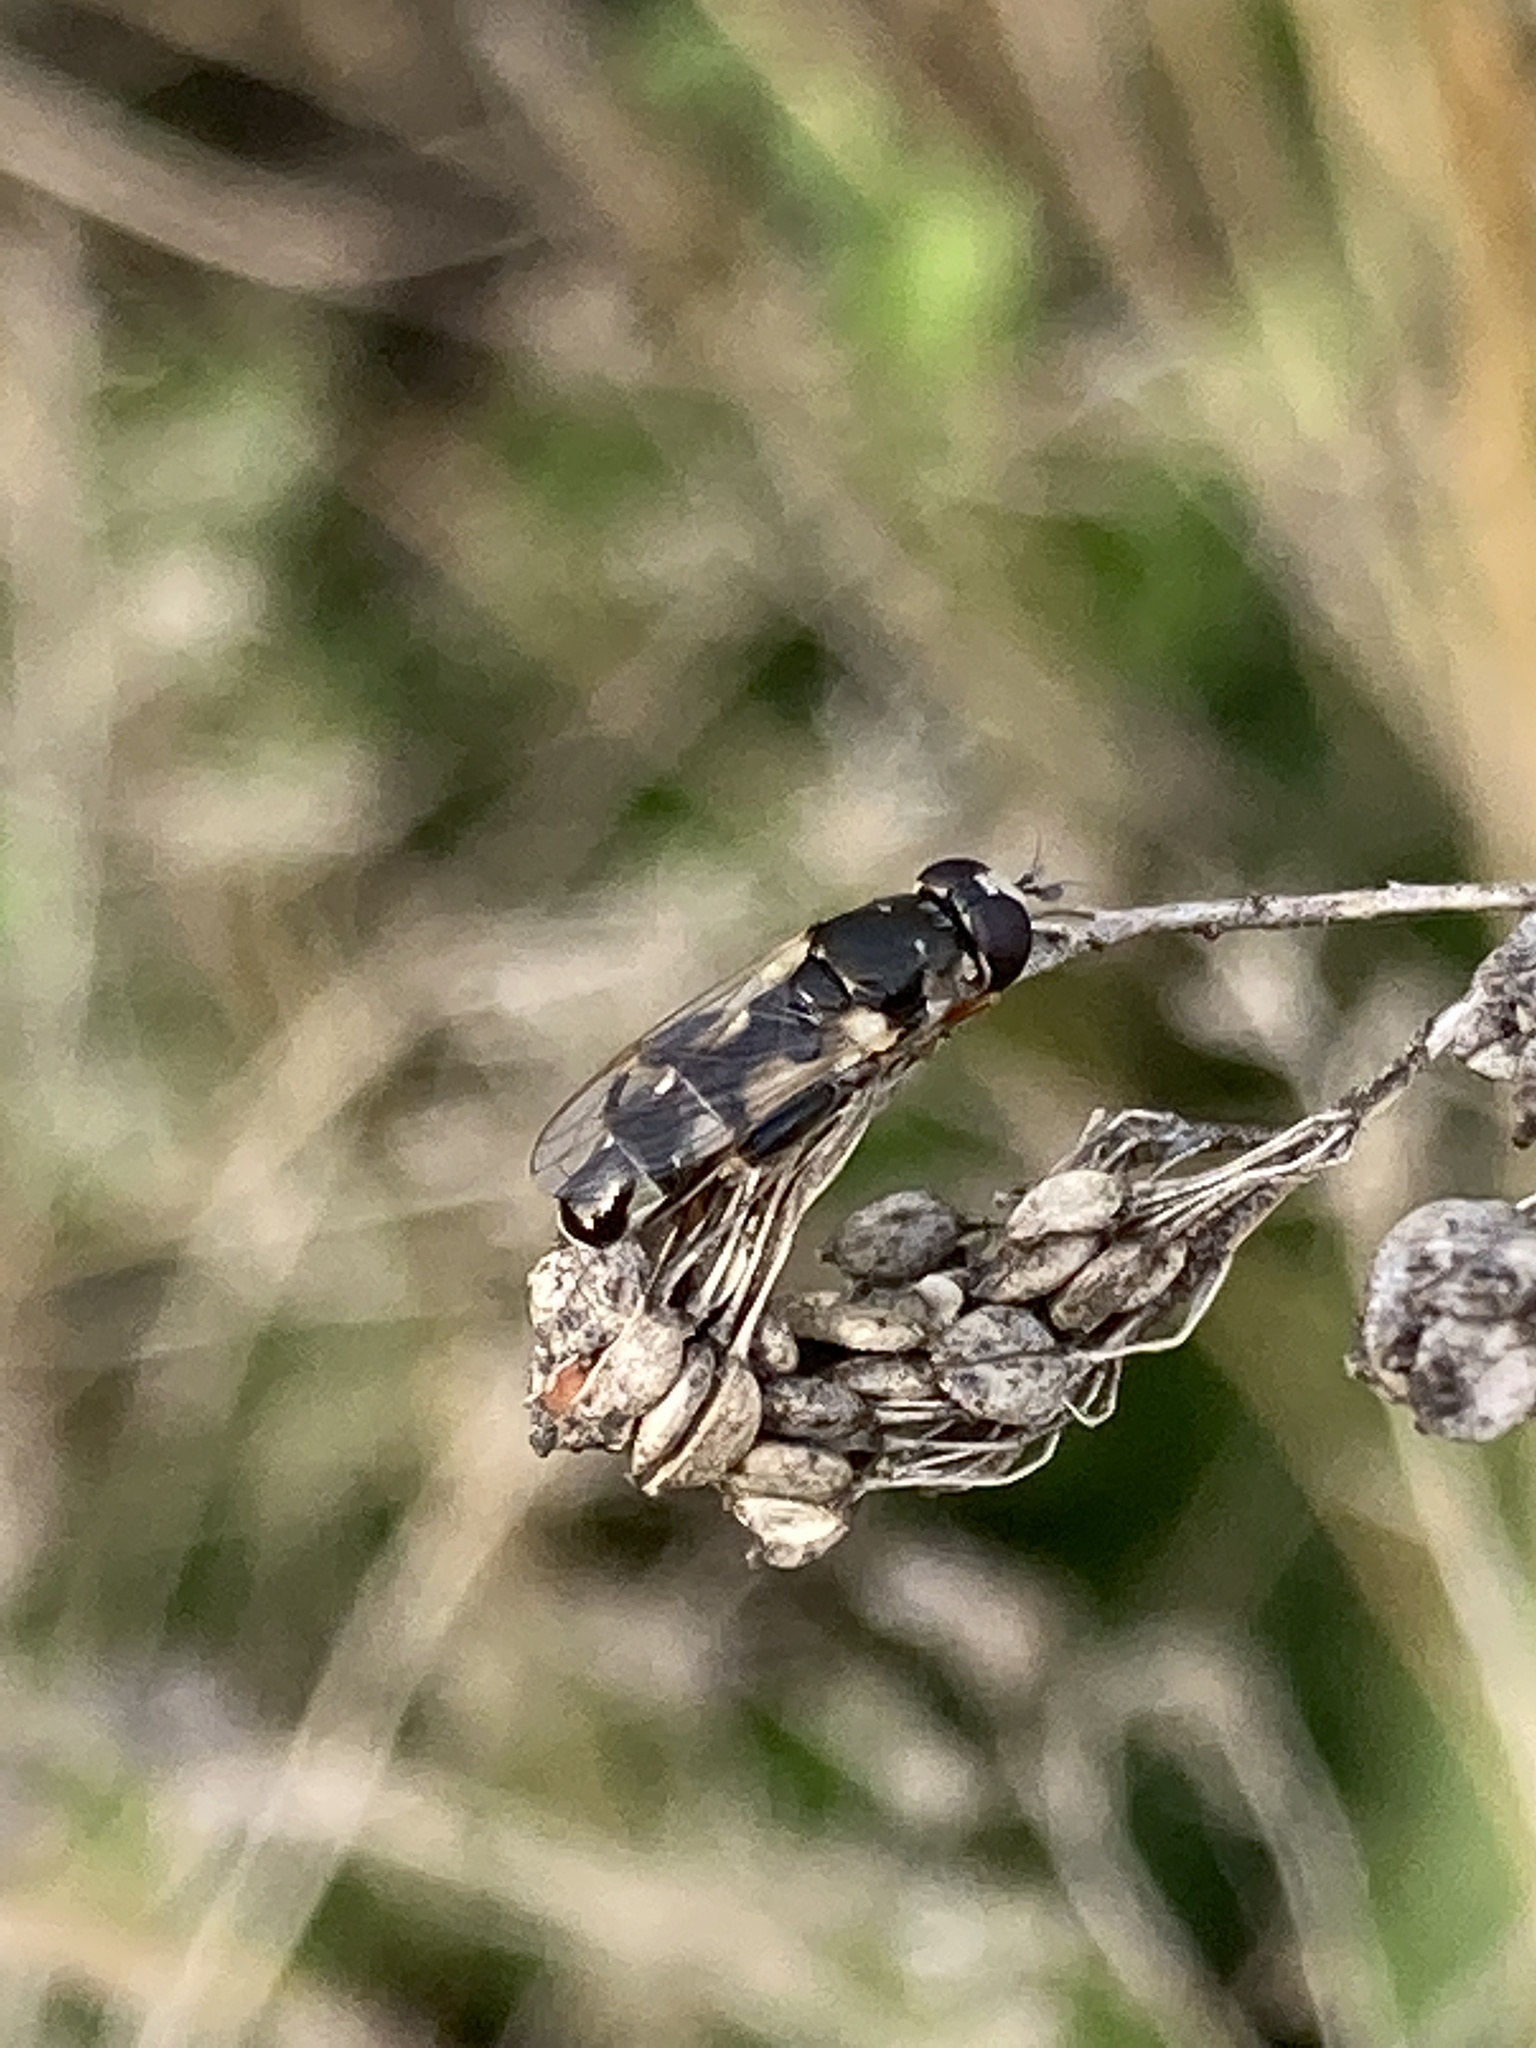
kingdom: Animalia
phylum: Arthropoda
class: Insecta
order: Diptera
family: Syrphidae
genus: Syritta
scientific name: Syritta flaviventris
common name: Syrphid fly
